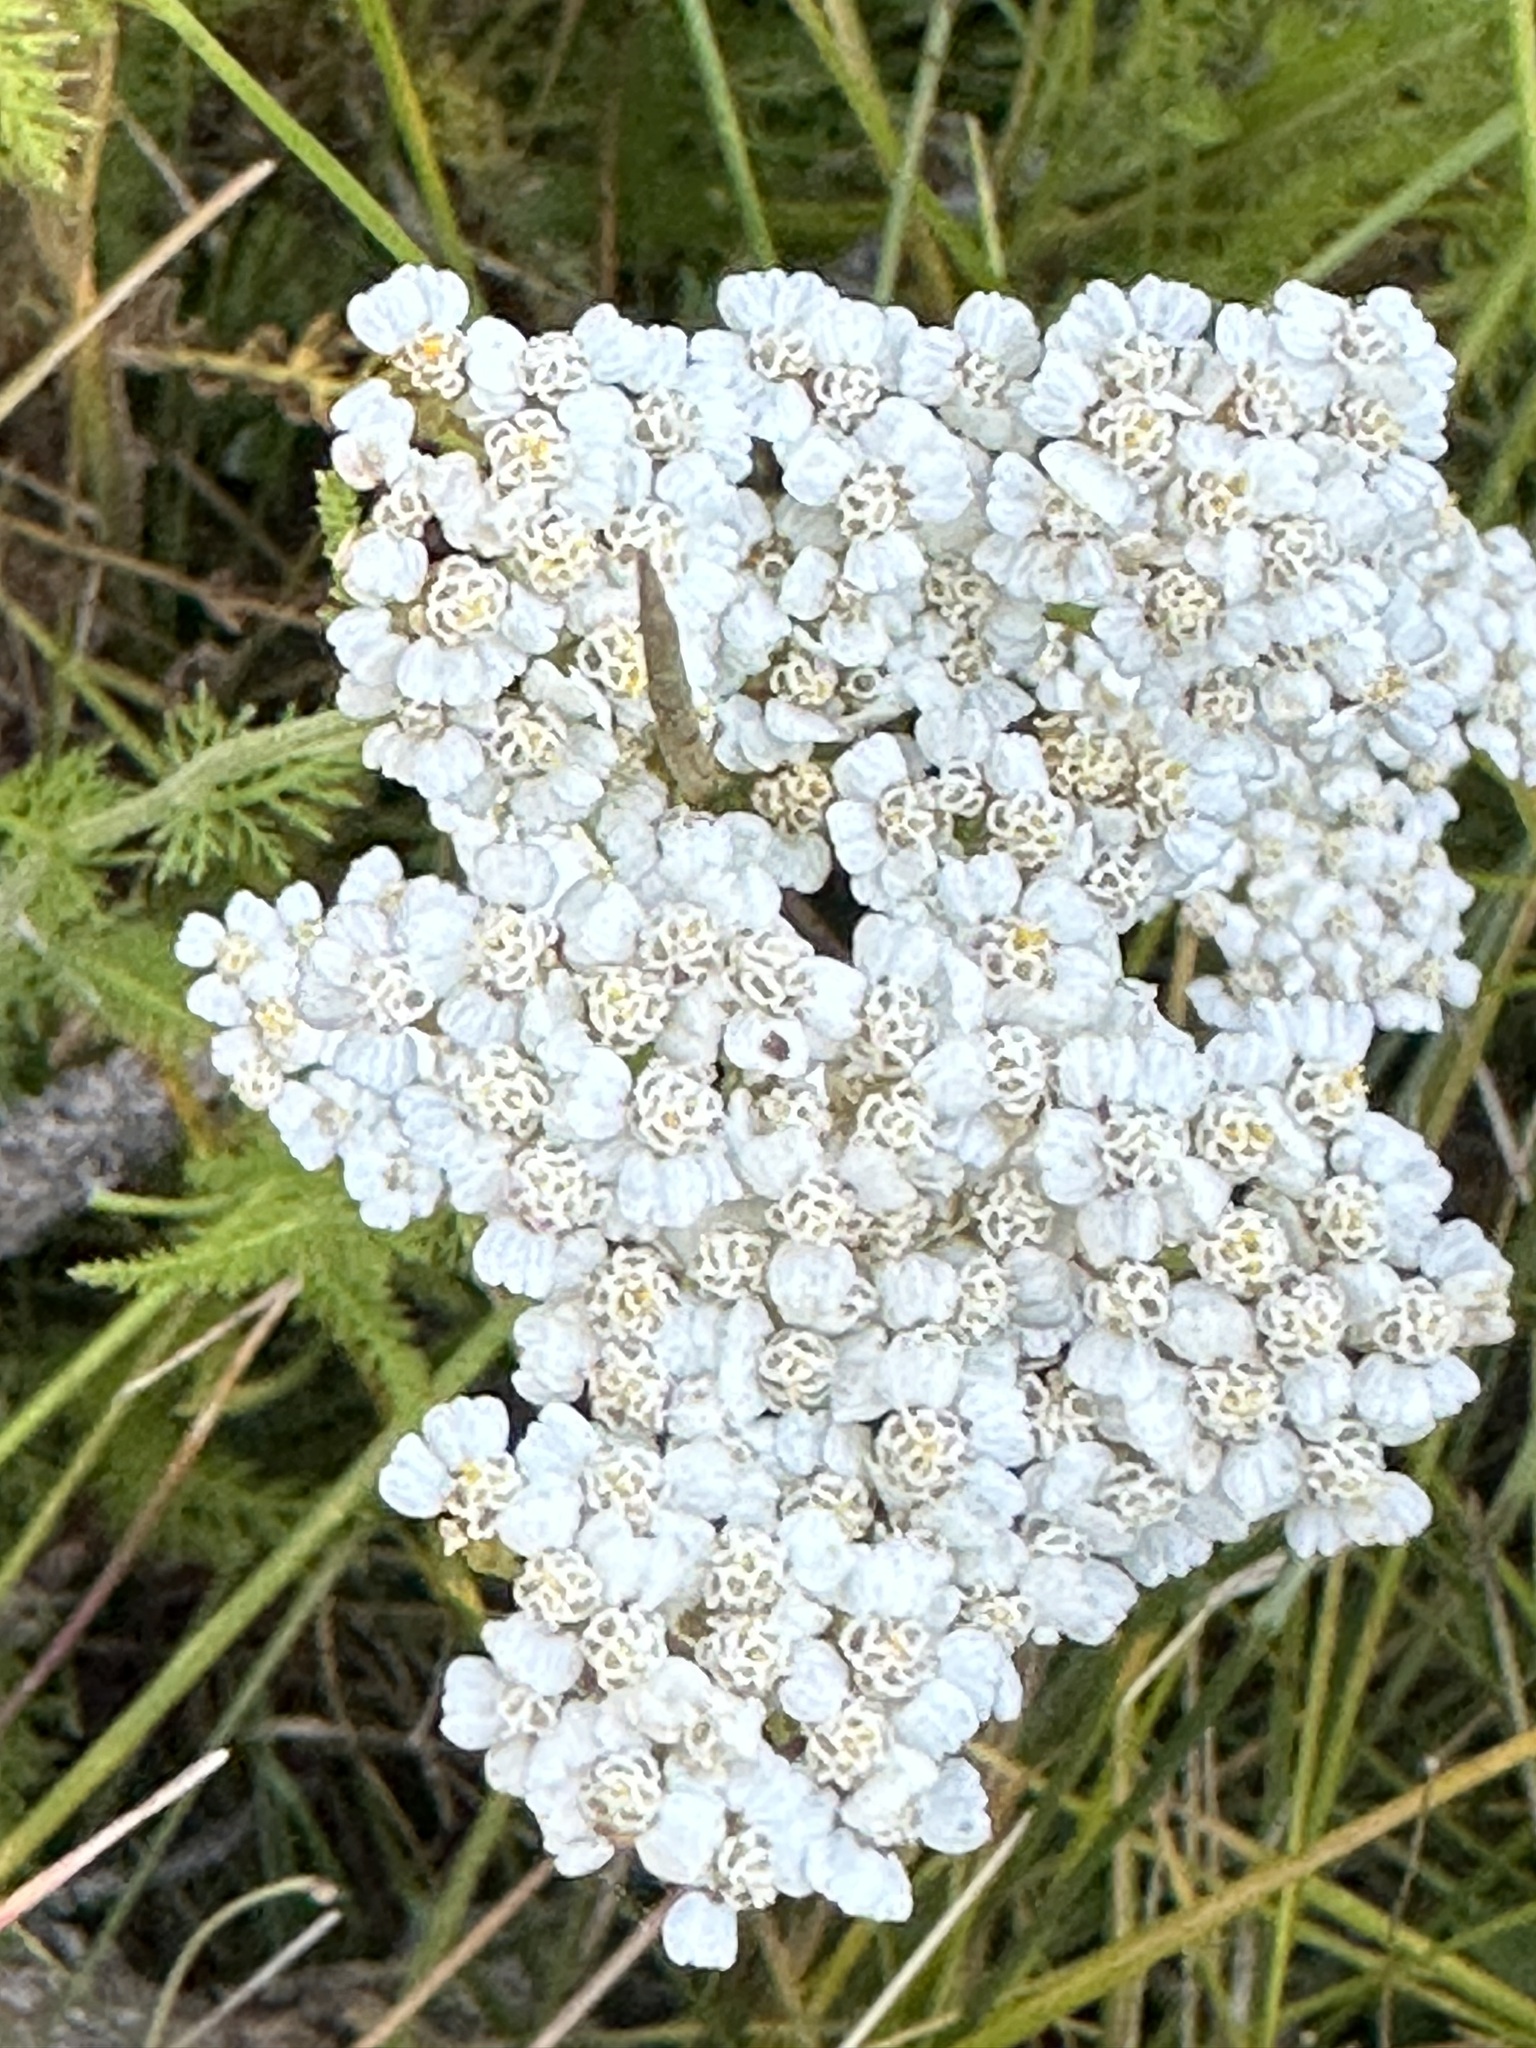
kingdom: Plantae
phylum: Tracheophyta
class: Magnoliopsida
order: Asterales
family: Asteraceae
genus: Achillea
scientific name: Achillea millefolium
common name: Yarrow
